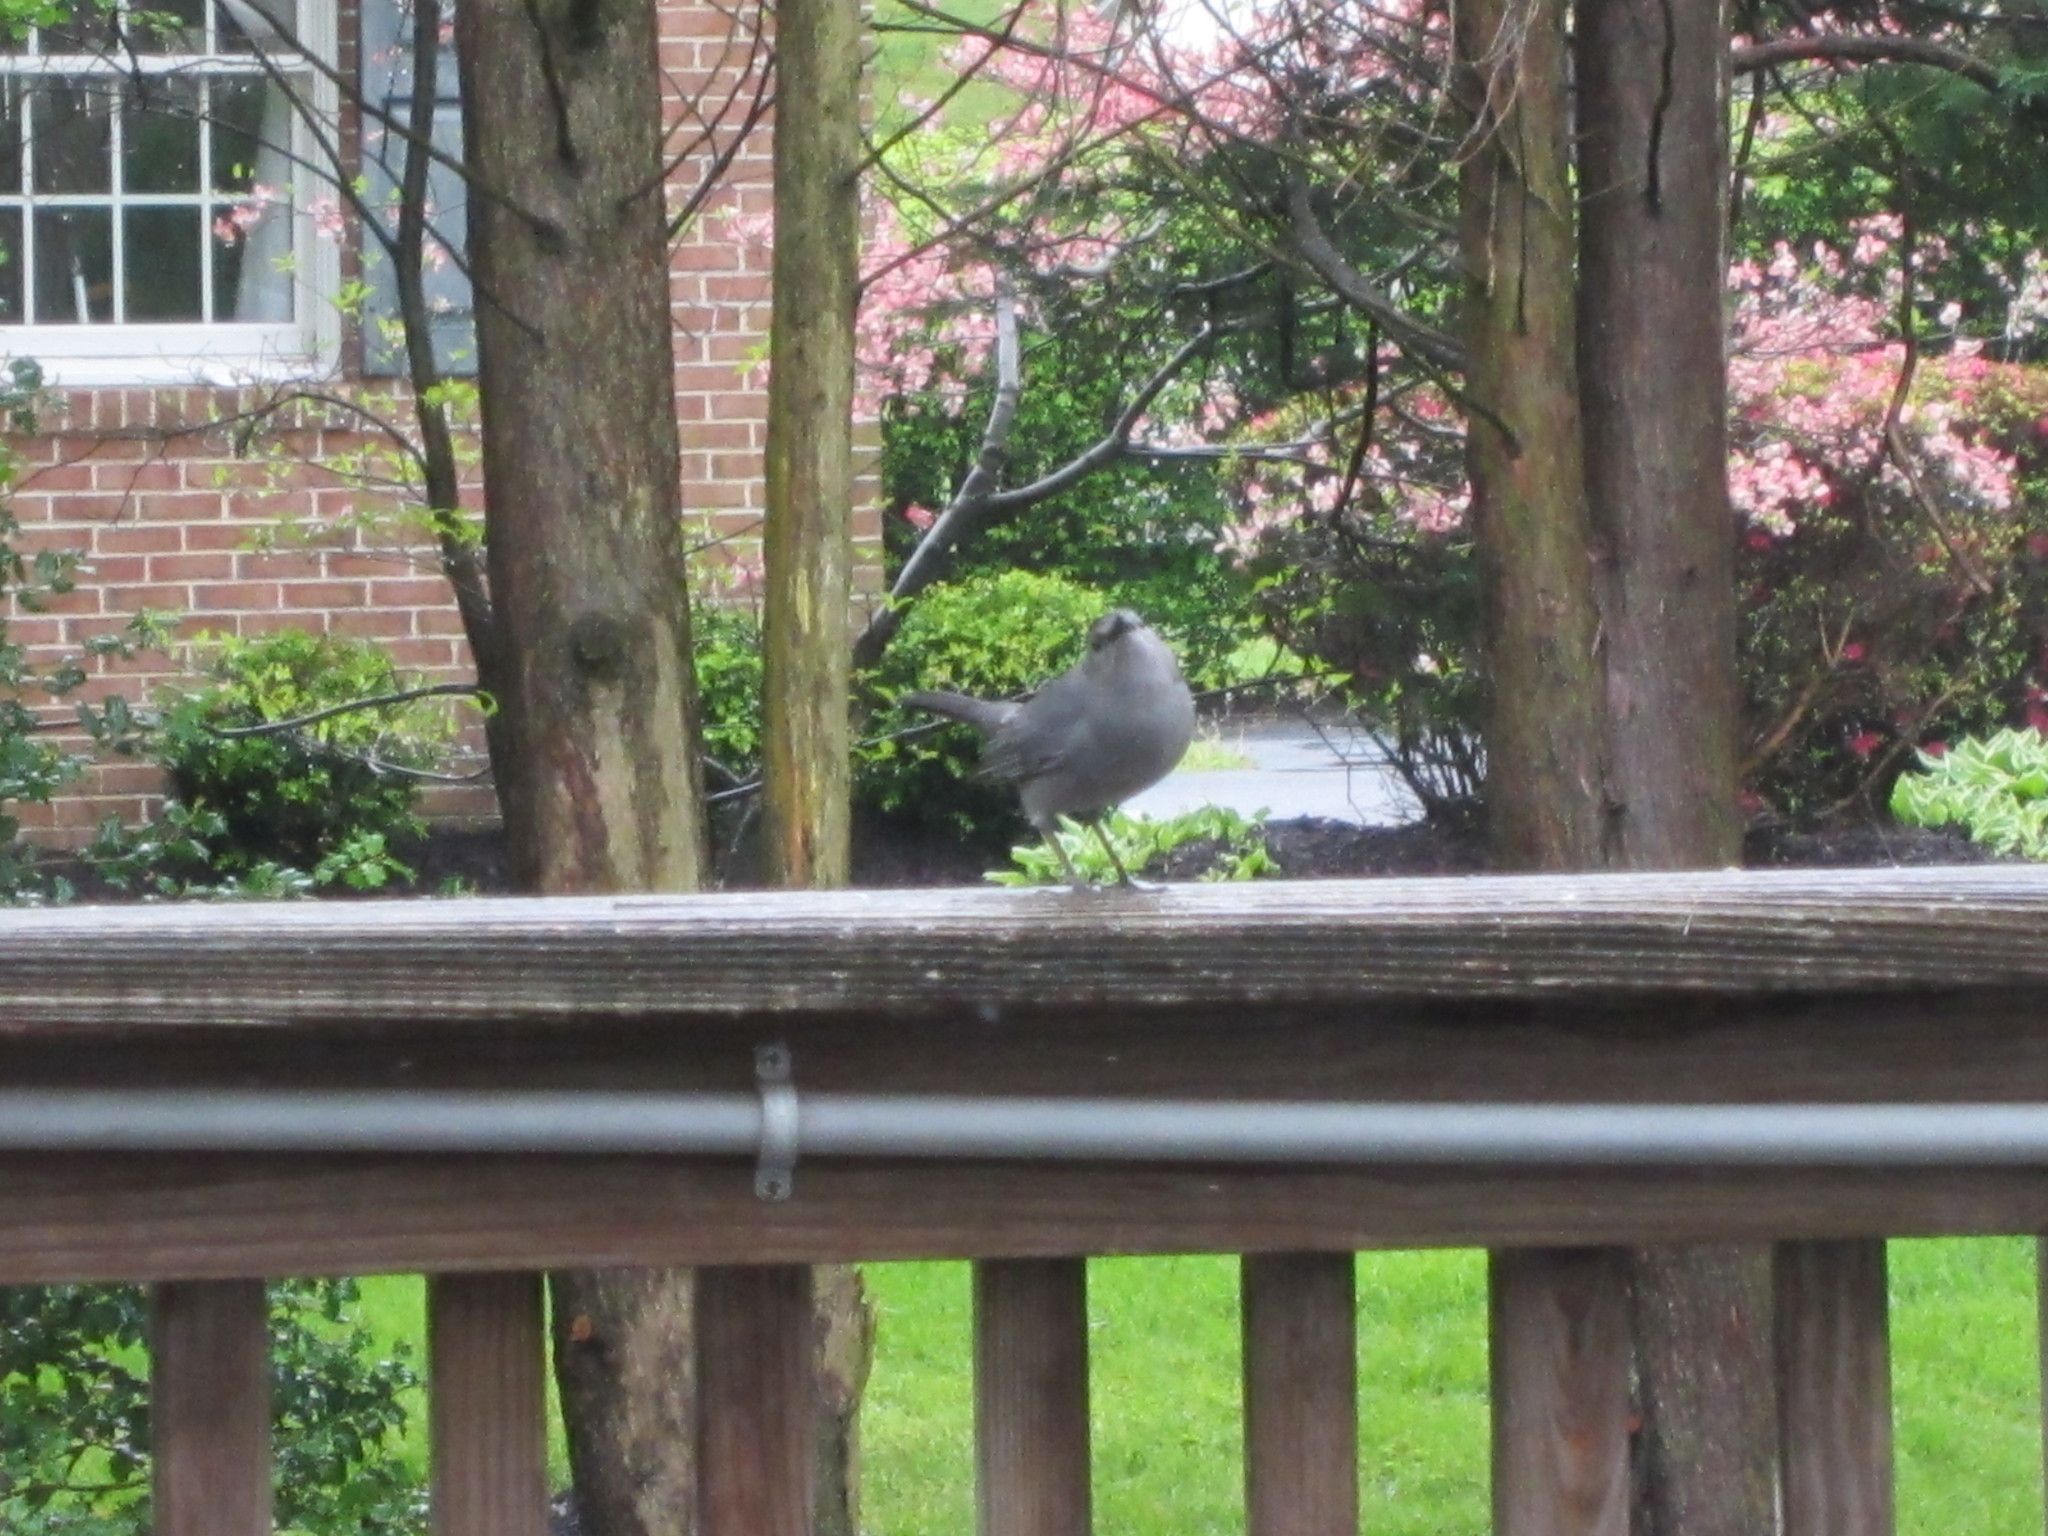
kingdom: Animalia
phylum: Chordata
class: Aves
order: Passeriformes
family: Mimidae
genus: Dumetella
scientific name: Dumetella carolinensis
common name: Gray catbird
